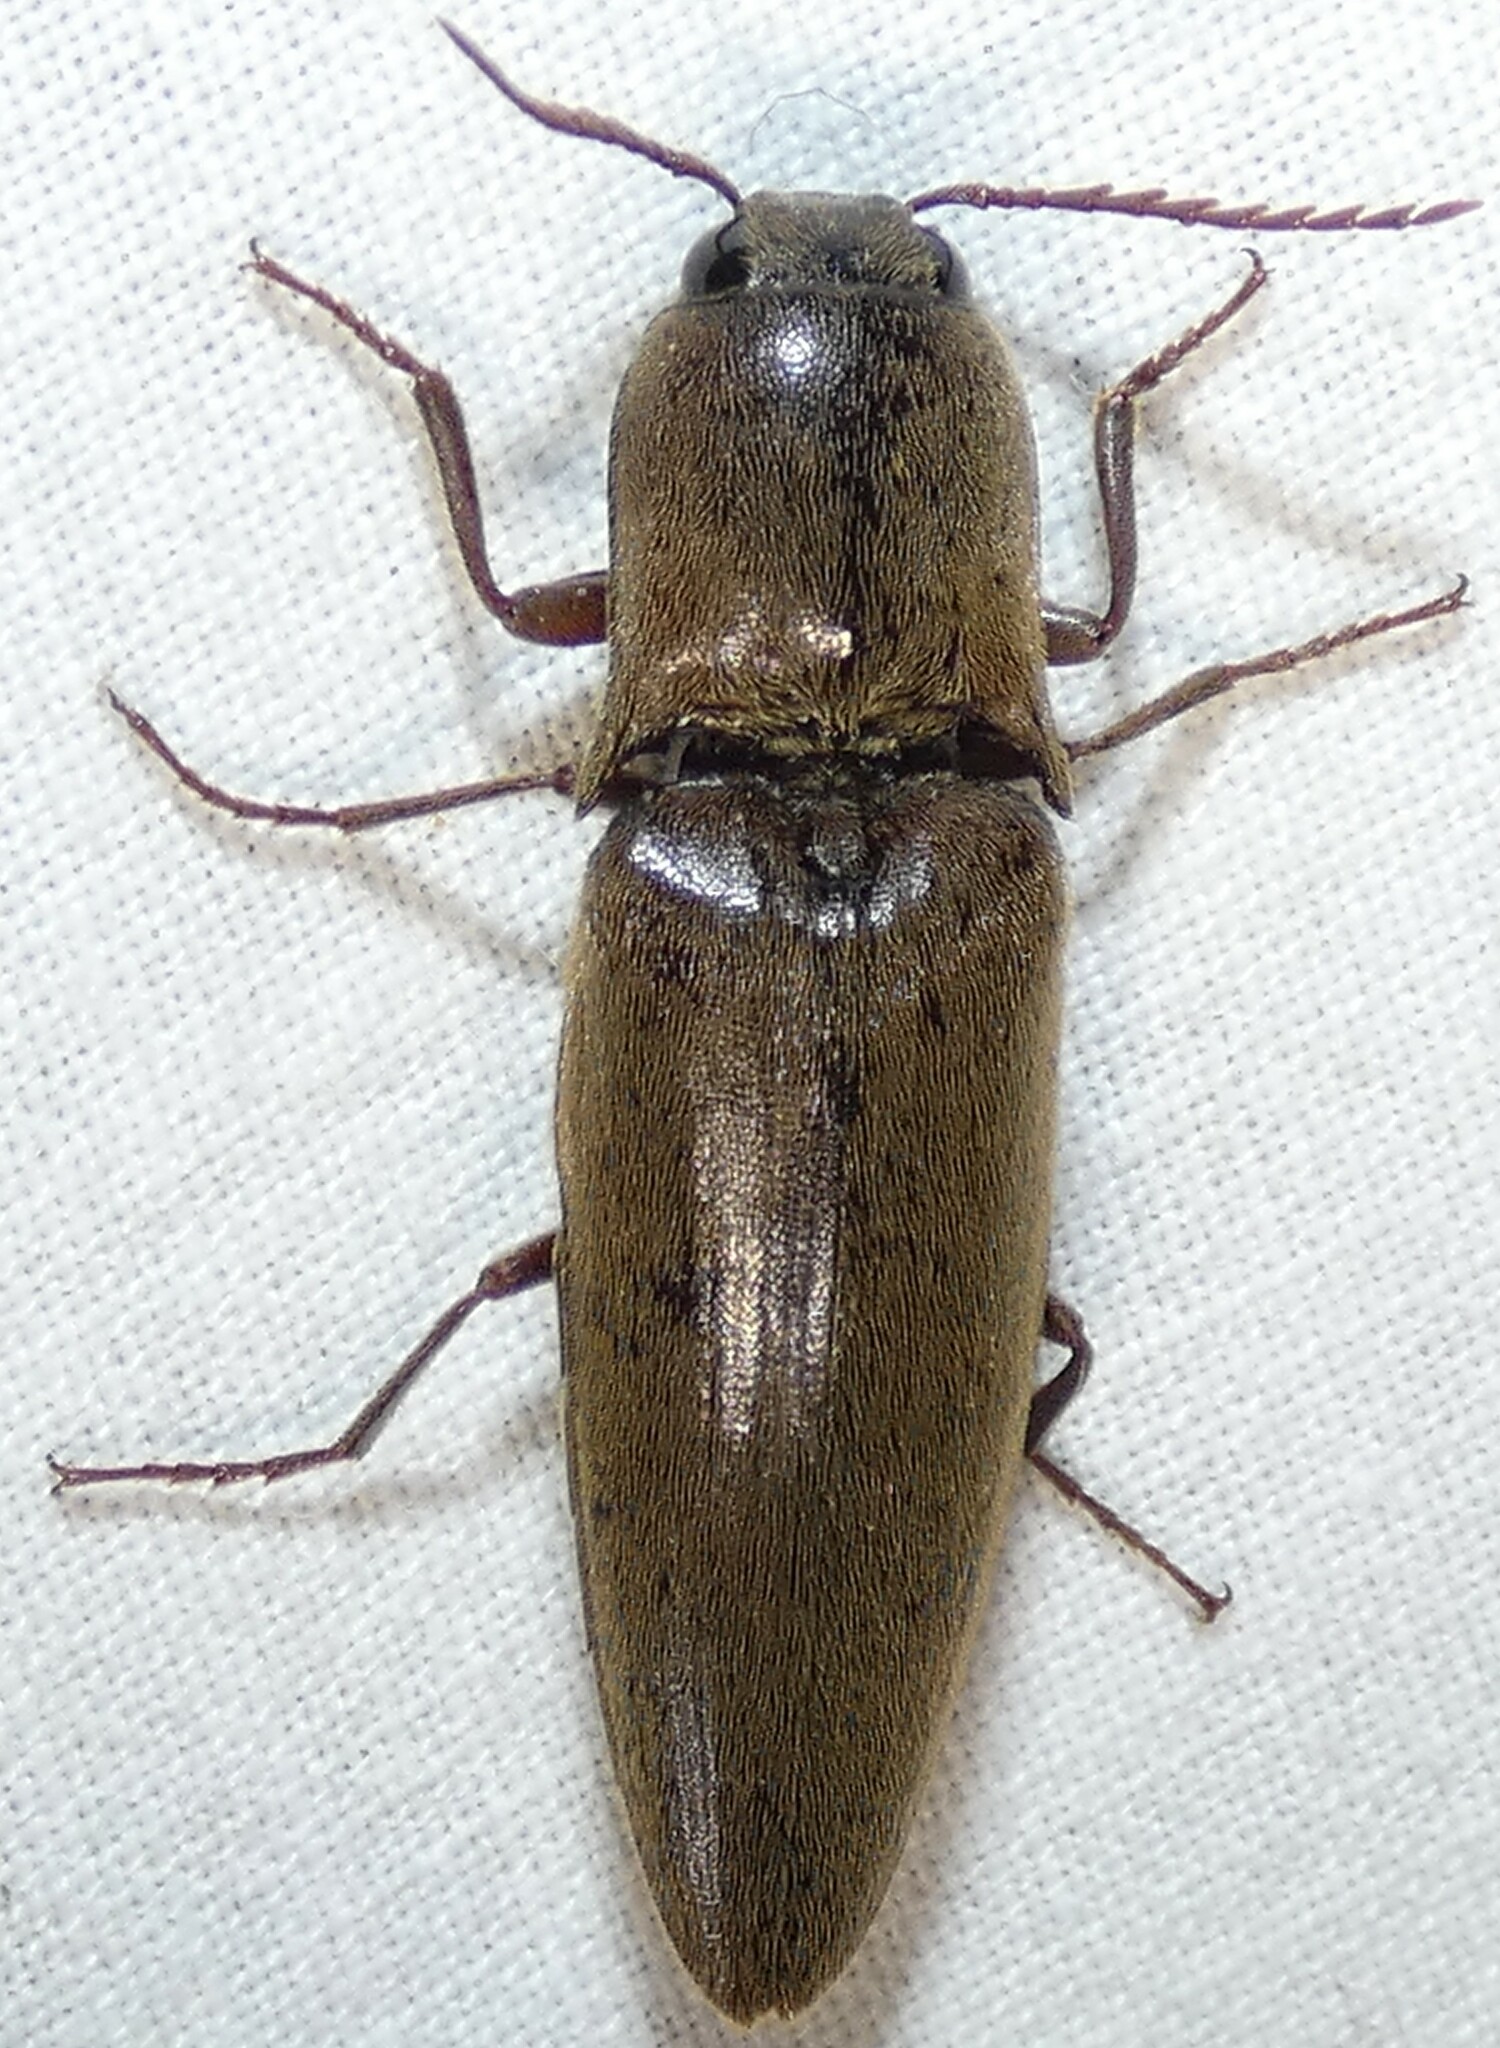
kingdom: Animalia
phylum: Arthropoda
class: Insecta
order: Coleoptera
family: Elateridae
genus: Orthostethus
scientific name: Orthostethus infuscatus
